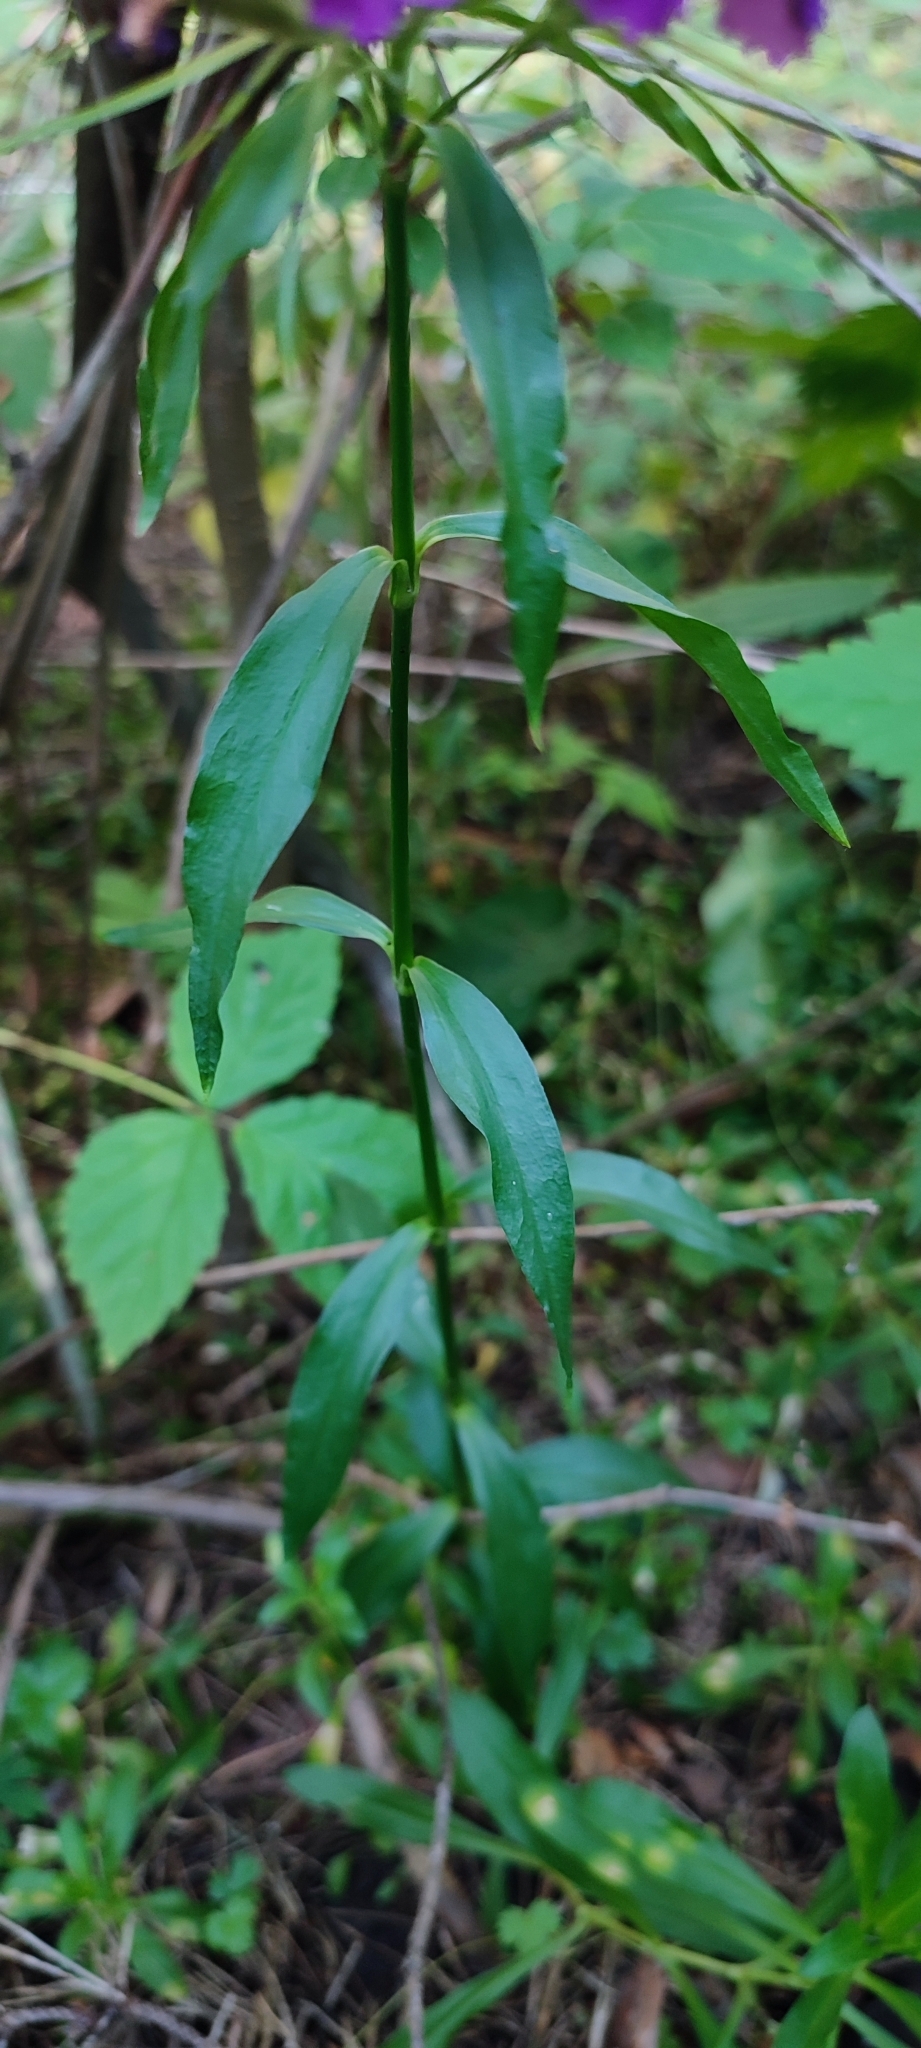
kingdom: Plantae
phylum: Tracheophyta
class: Magnoliopsida
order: Caryophyllales
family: Caryophyllaceae
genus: Dianthus
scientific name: Dianthus barbatus
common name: Sweet-william
